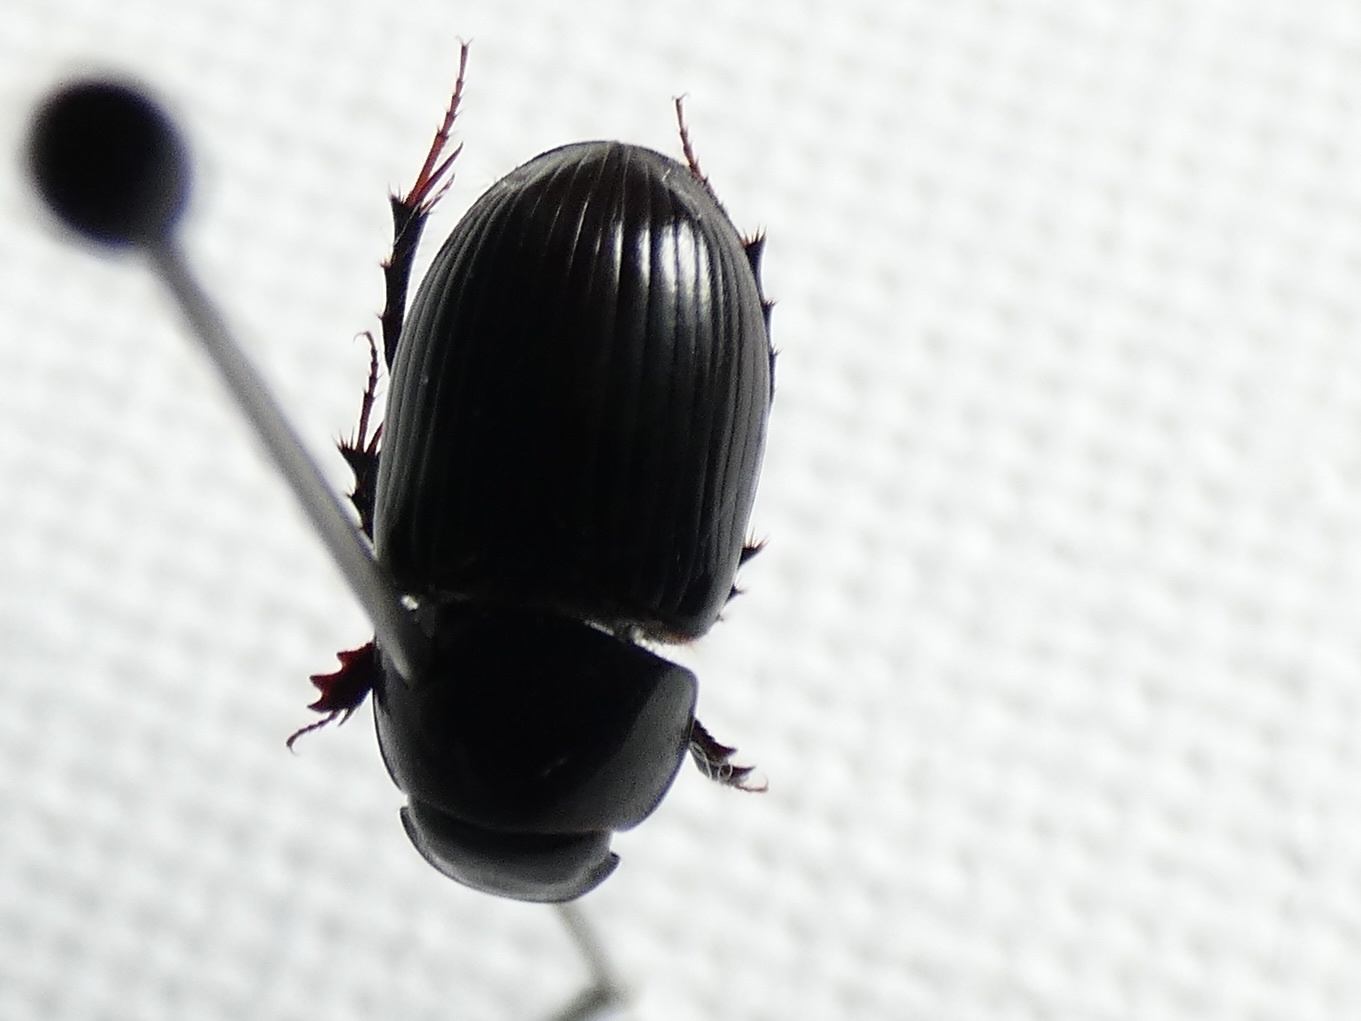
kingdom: Animalia
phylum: Arthropoda
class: Insecta
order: Coleoptera
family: Scarabaeidae
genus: Acrossus
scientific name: Acrossus rufipes
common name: Night-flying dung beetle
